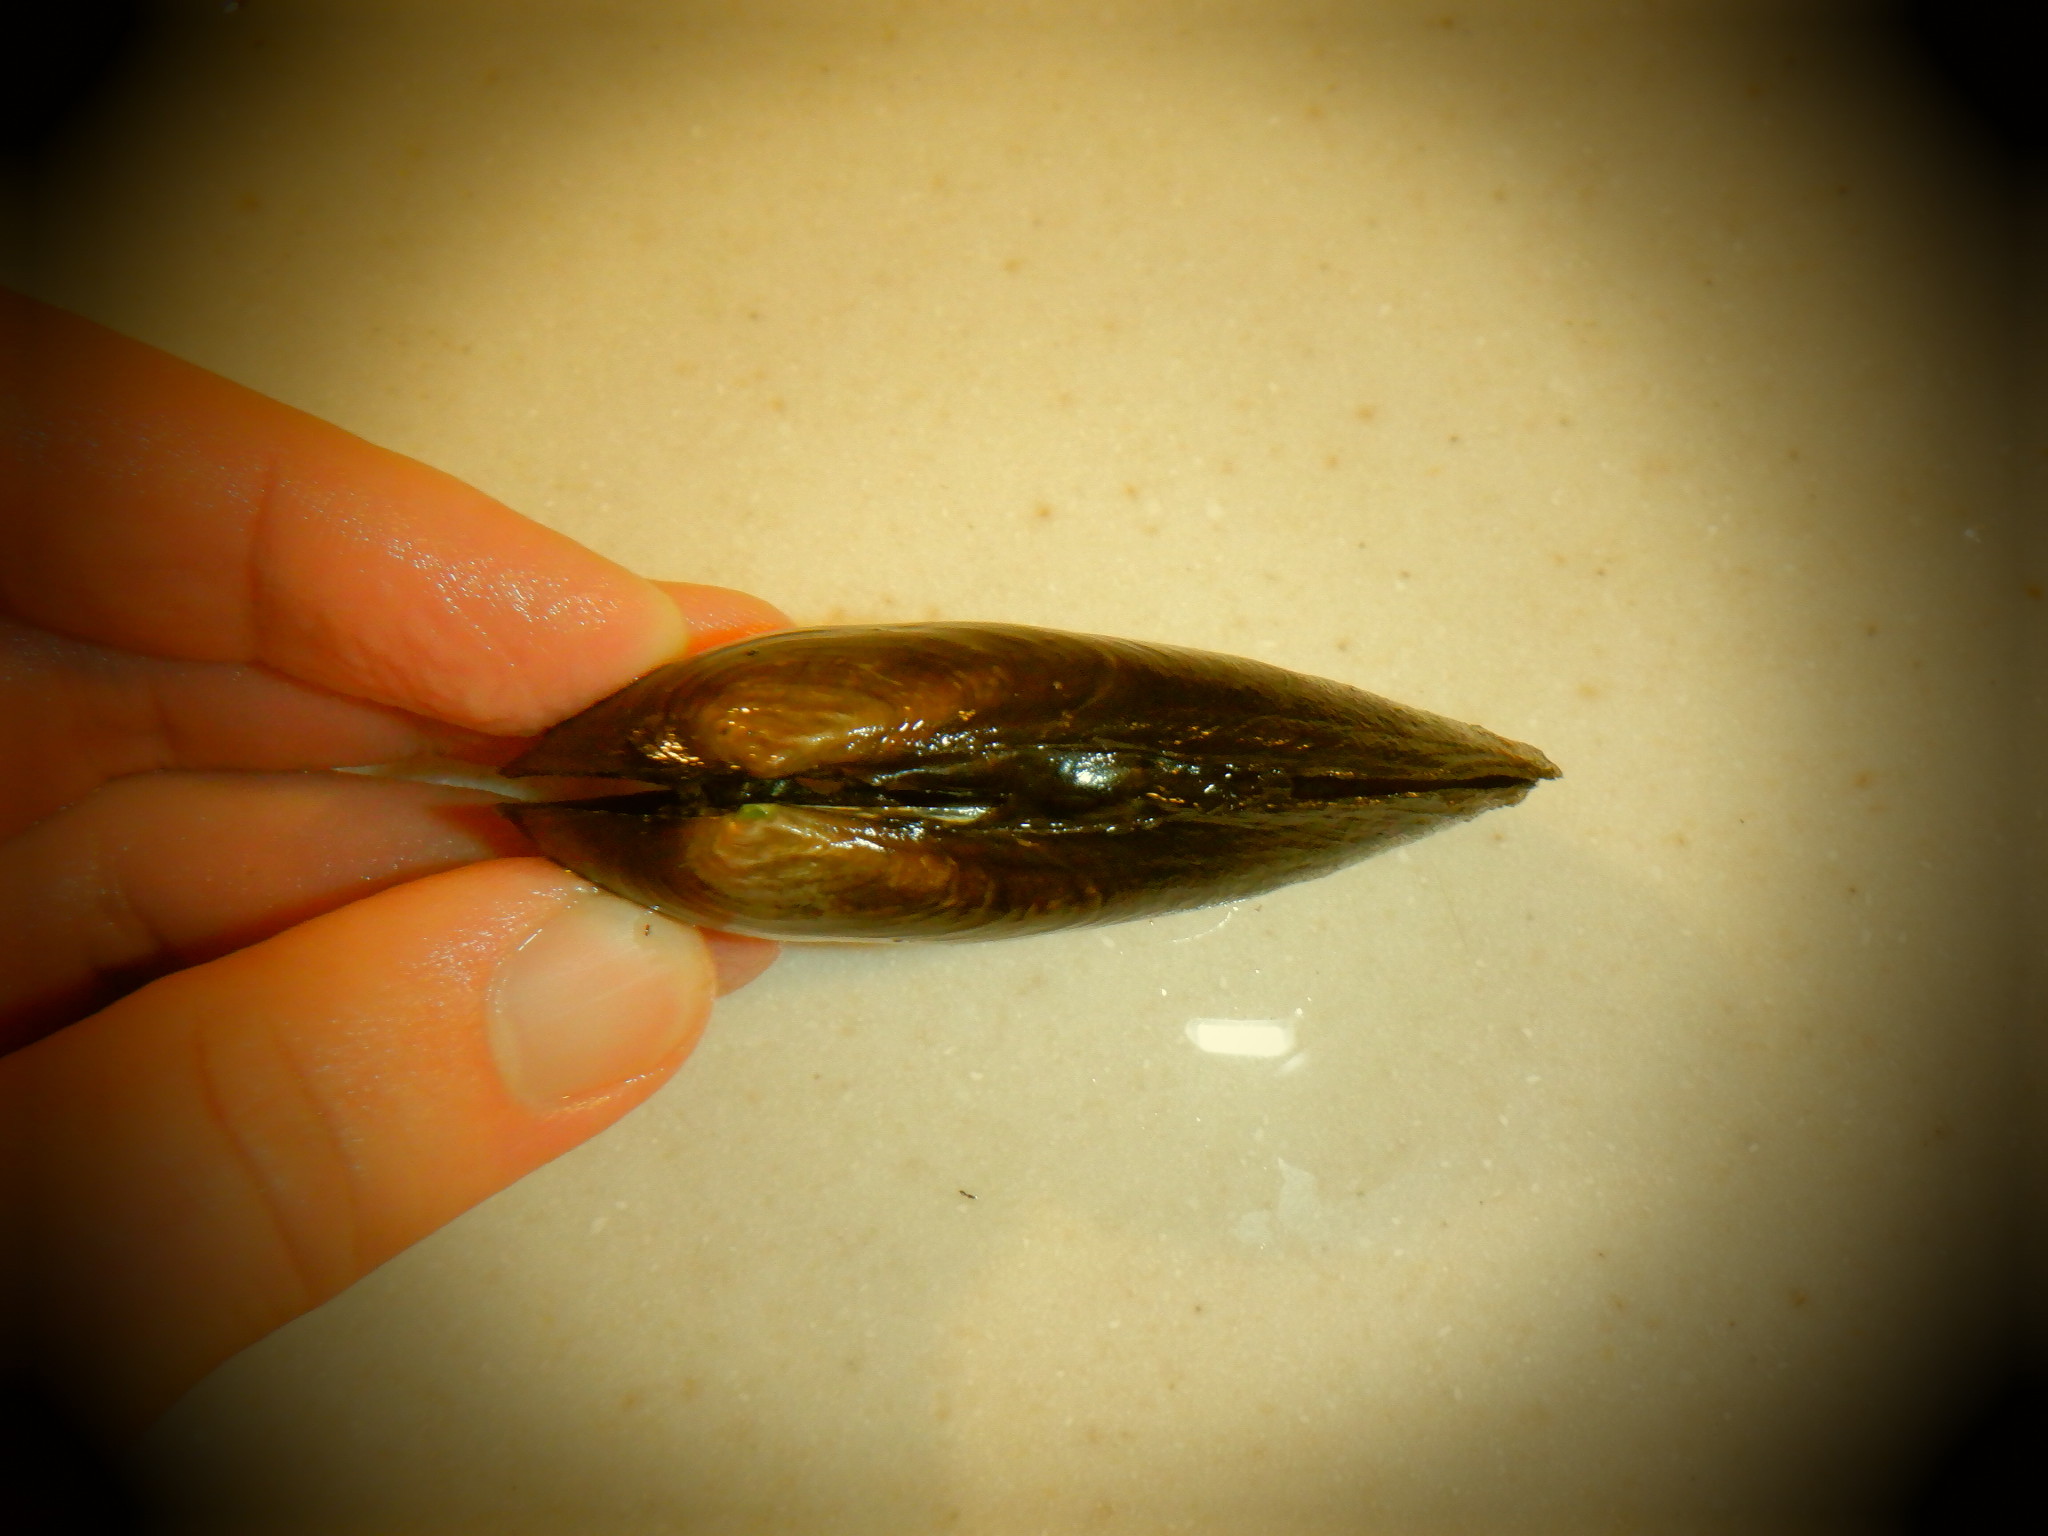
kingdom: Animalia
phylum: Mollusca
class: Bivalvia
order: Unionida
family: Unionidae
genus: Eurynia
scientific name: Eurynia dilatata
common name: Spike
